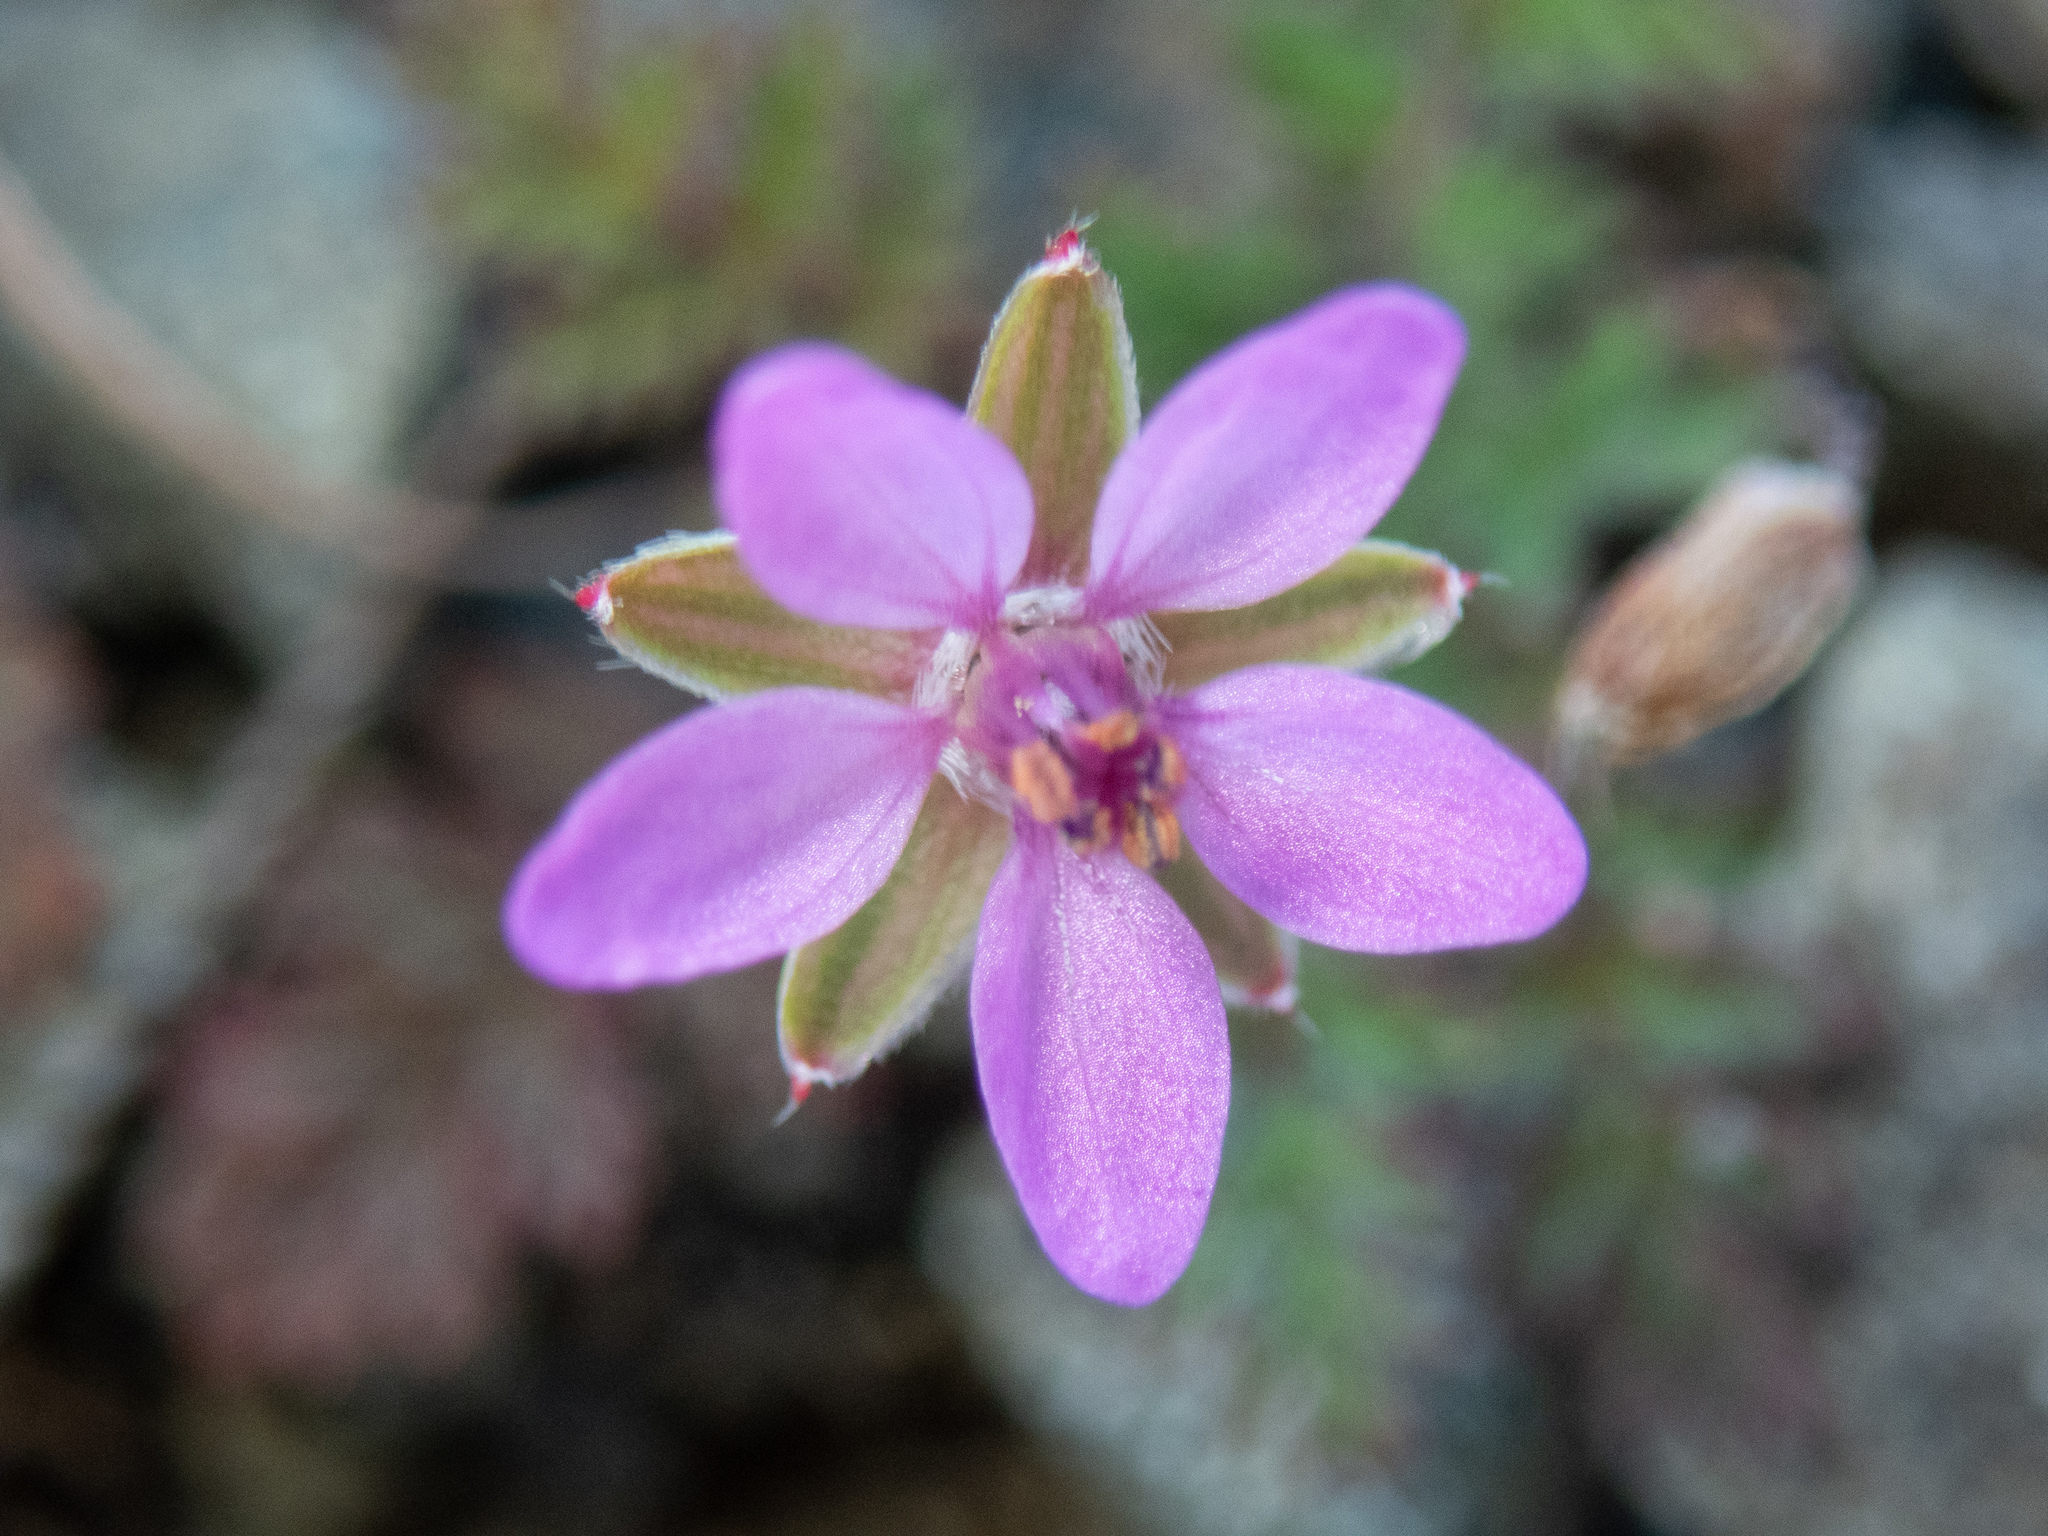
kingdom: Plantae
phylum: Tracheophyta
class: Magnoliopsida
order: Geraniales
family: Geraniaceae
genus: Erodium
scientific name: Erodium cicutarium
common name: Common stork's-bill
